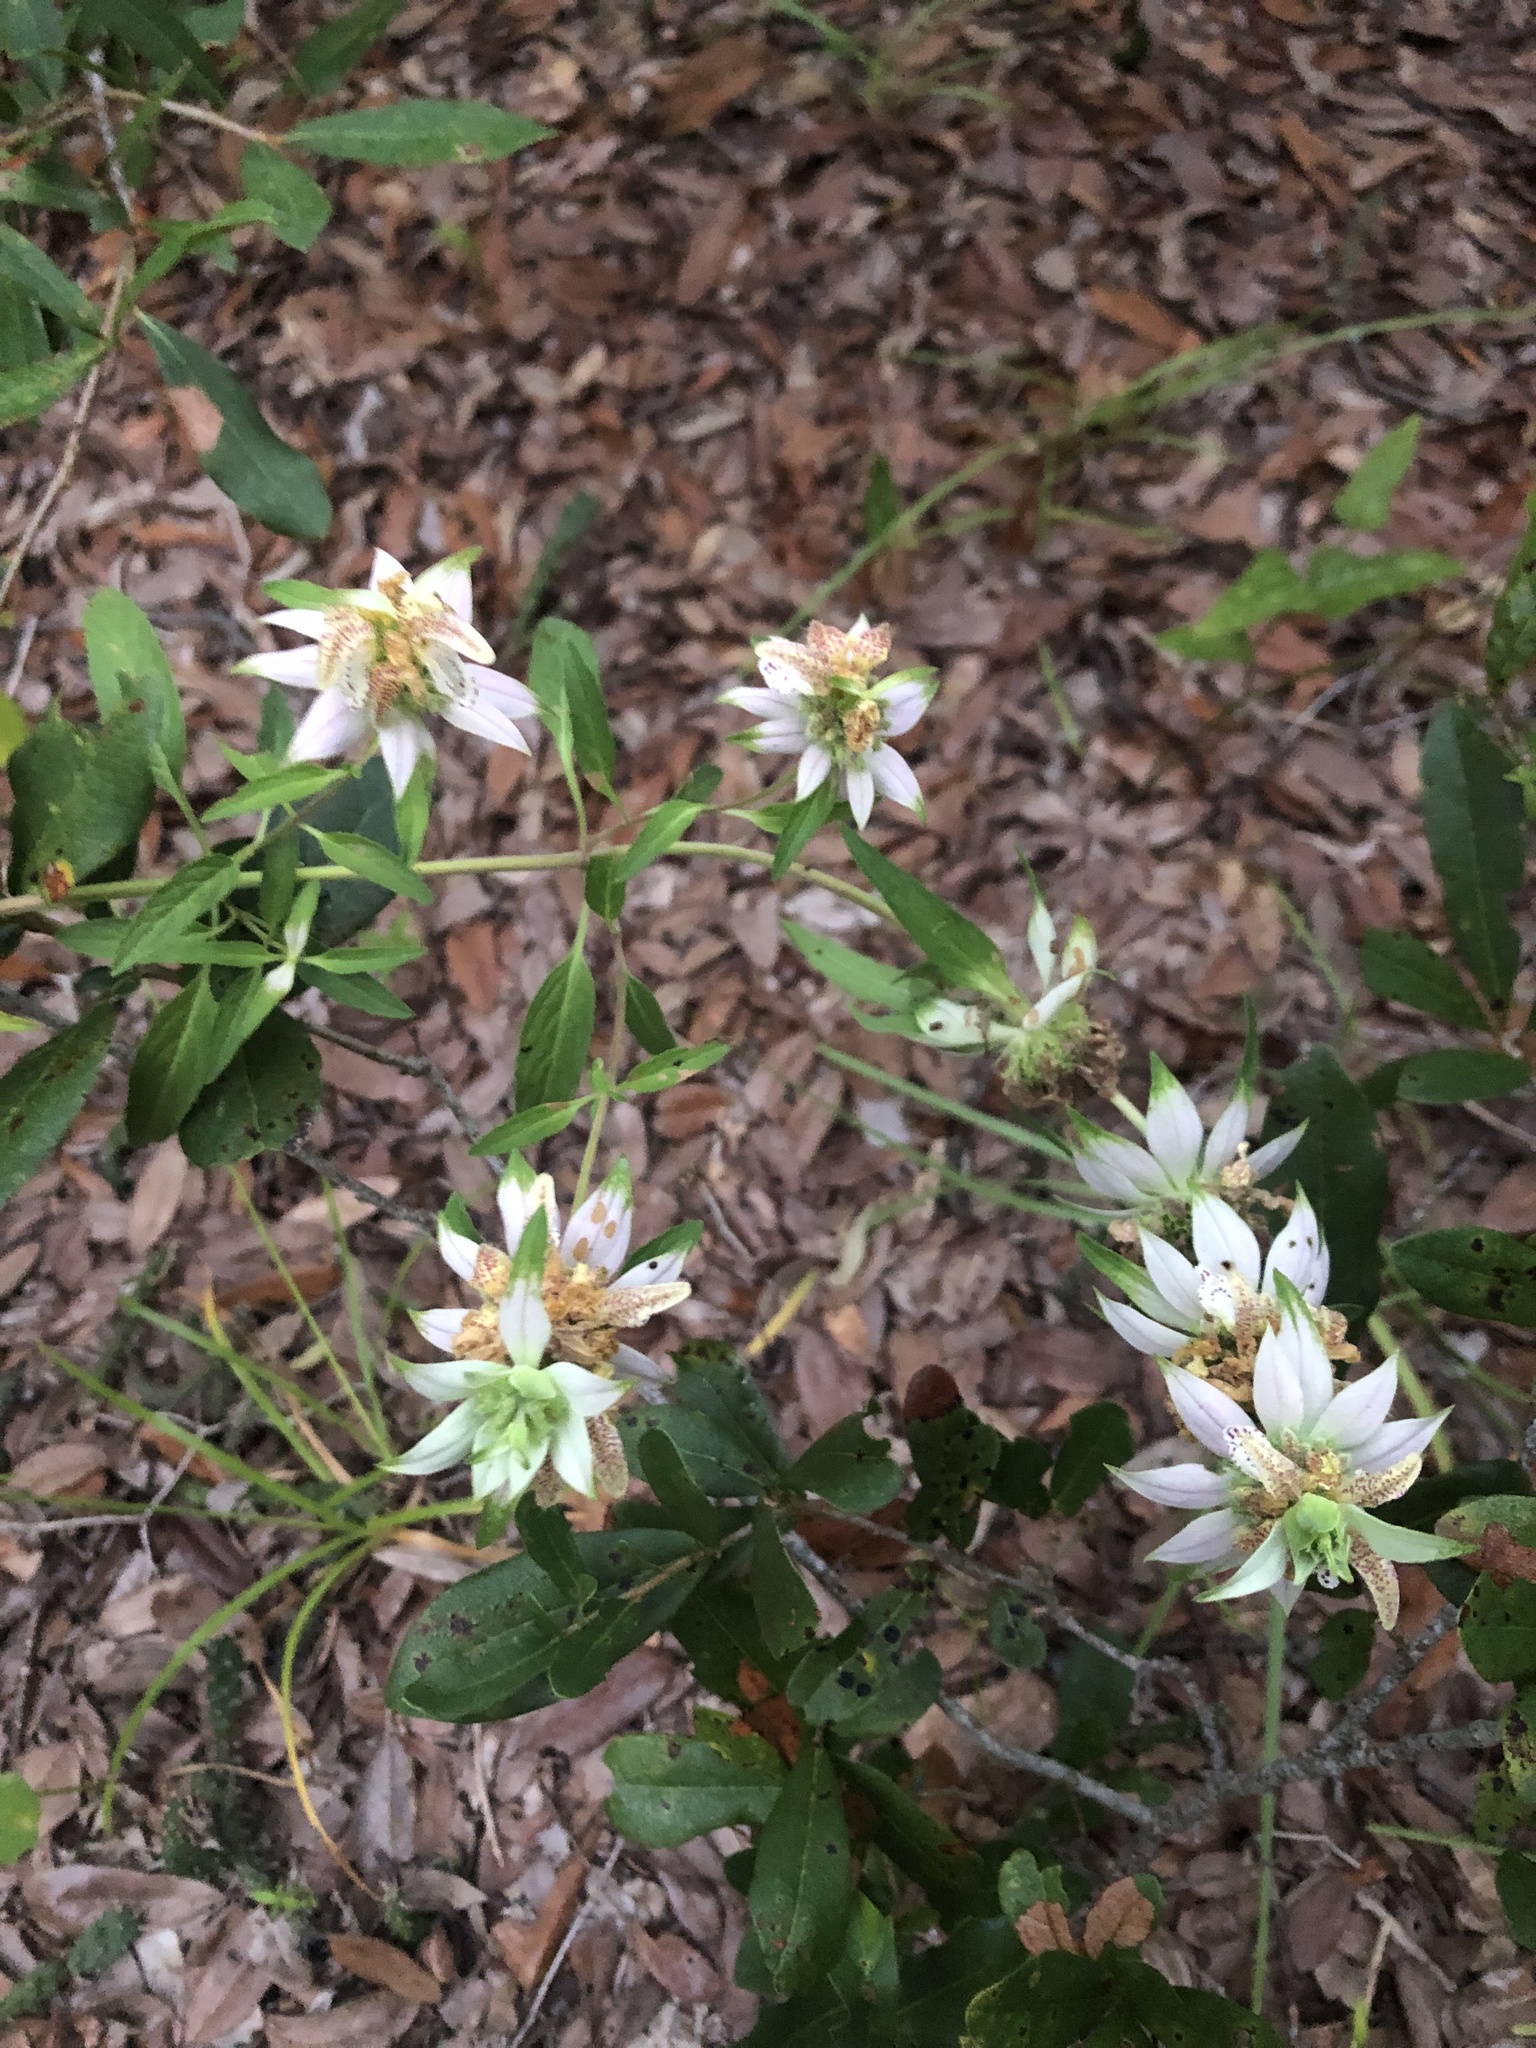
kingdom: Plantae
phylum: Tracheophyta
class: Magnoliopsida
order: Lamiales
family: Lamiaceae
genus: Monarda
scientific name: Monarda punctata
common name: Dotted monarda
